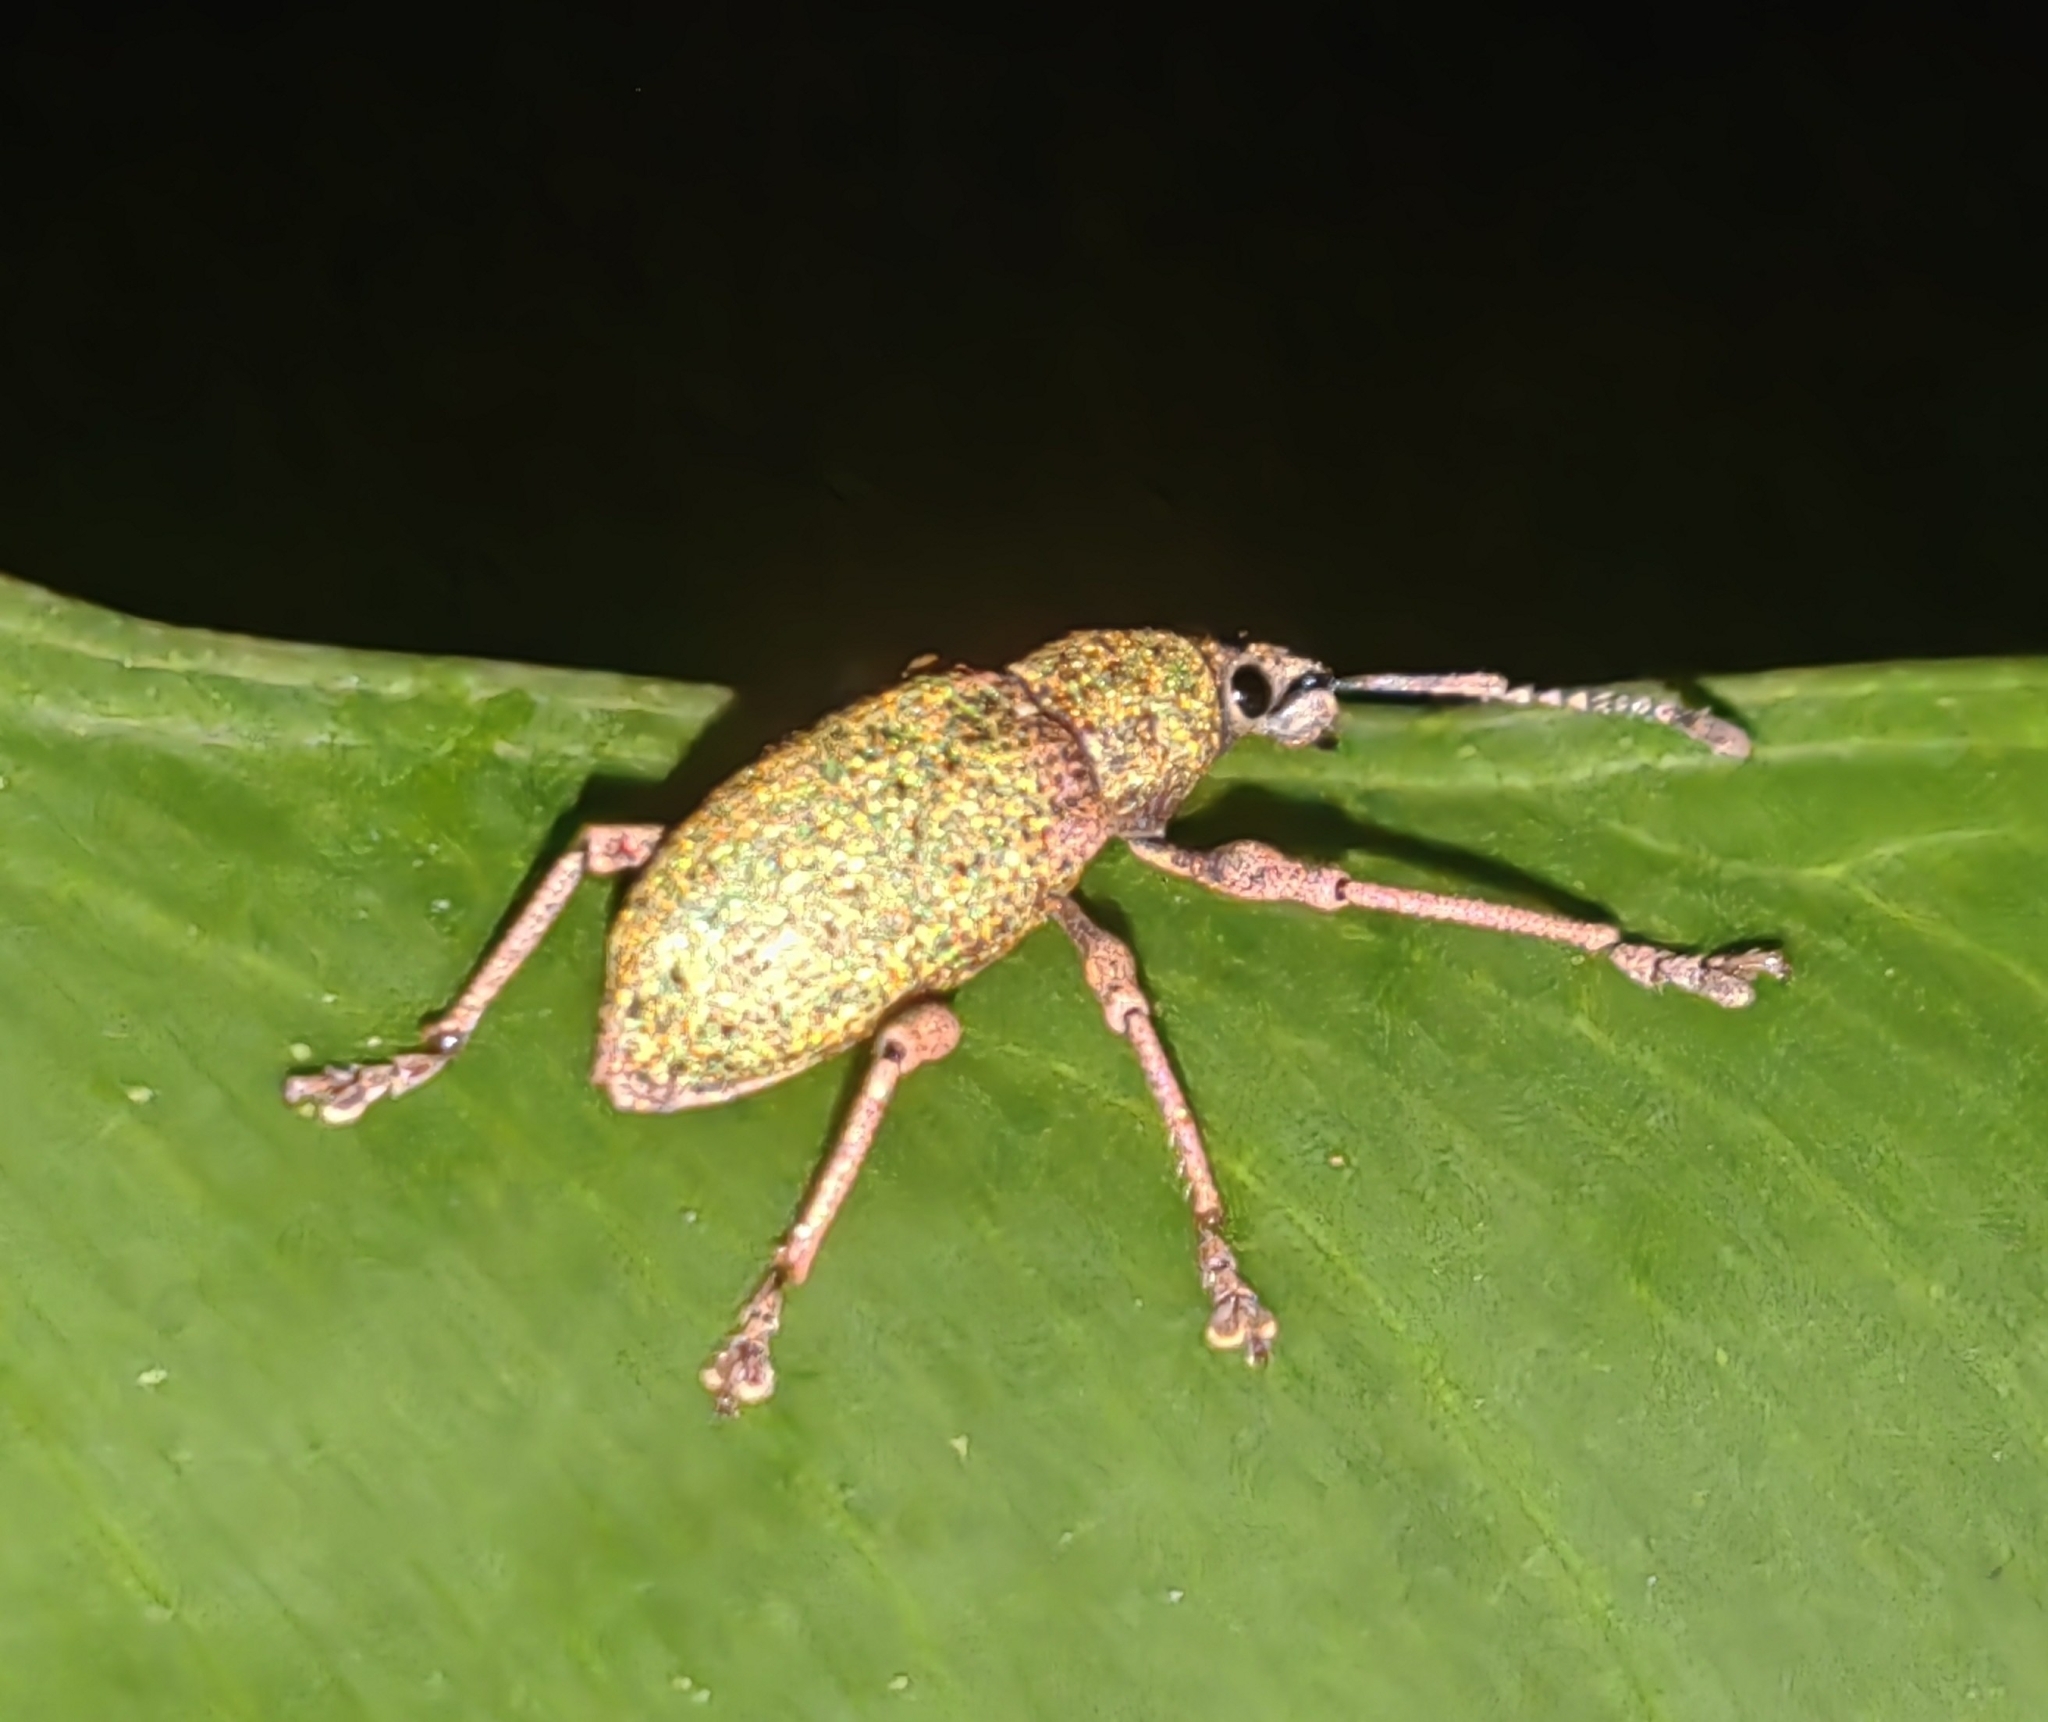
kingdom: Animalia
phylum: Arthropoda
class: Insecta
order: Coleoptera
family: Curculionidae
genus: Exophthalmus
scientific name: Exophthalmus carneipes
